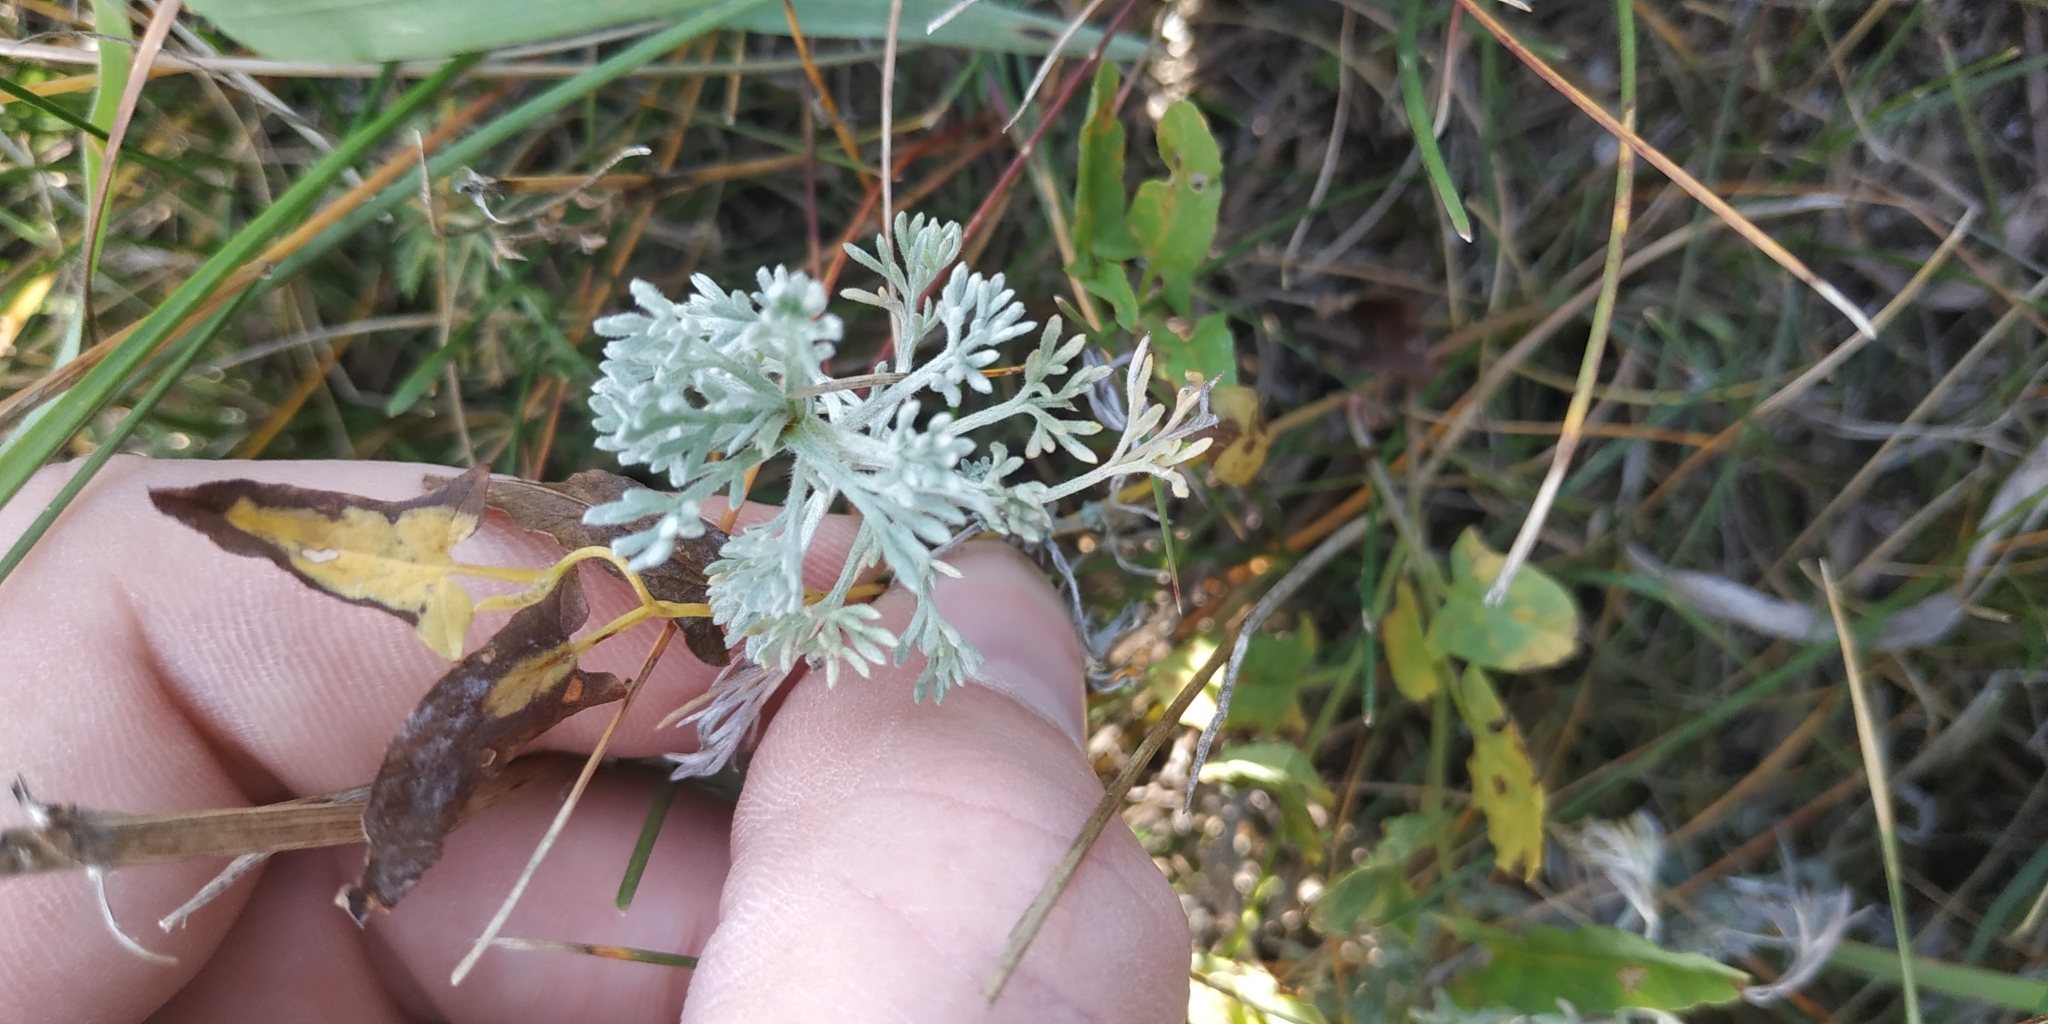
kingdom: Plantae
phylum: Tracheophyta
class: Magnoliopsida
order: Asterales
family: Asteraceae
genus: Artemisia
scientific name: Artemisia frigida
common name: Prairie sagewort
